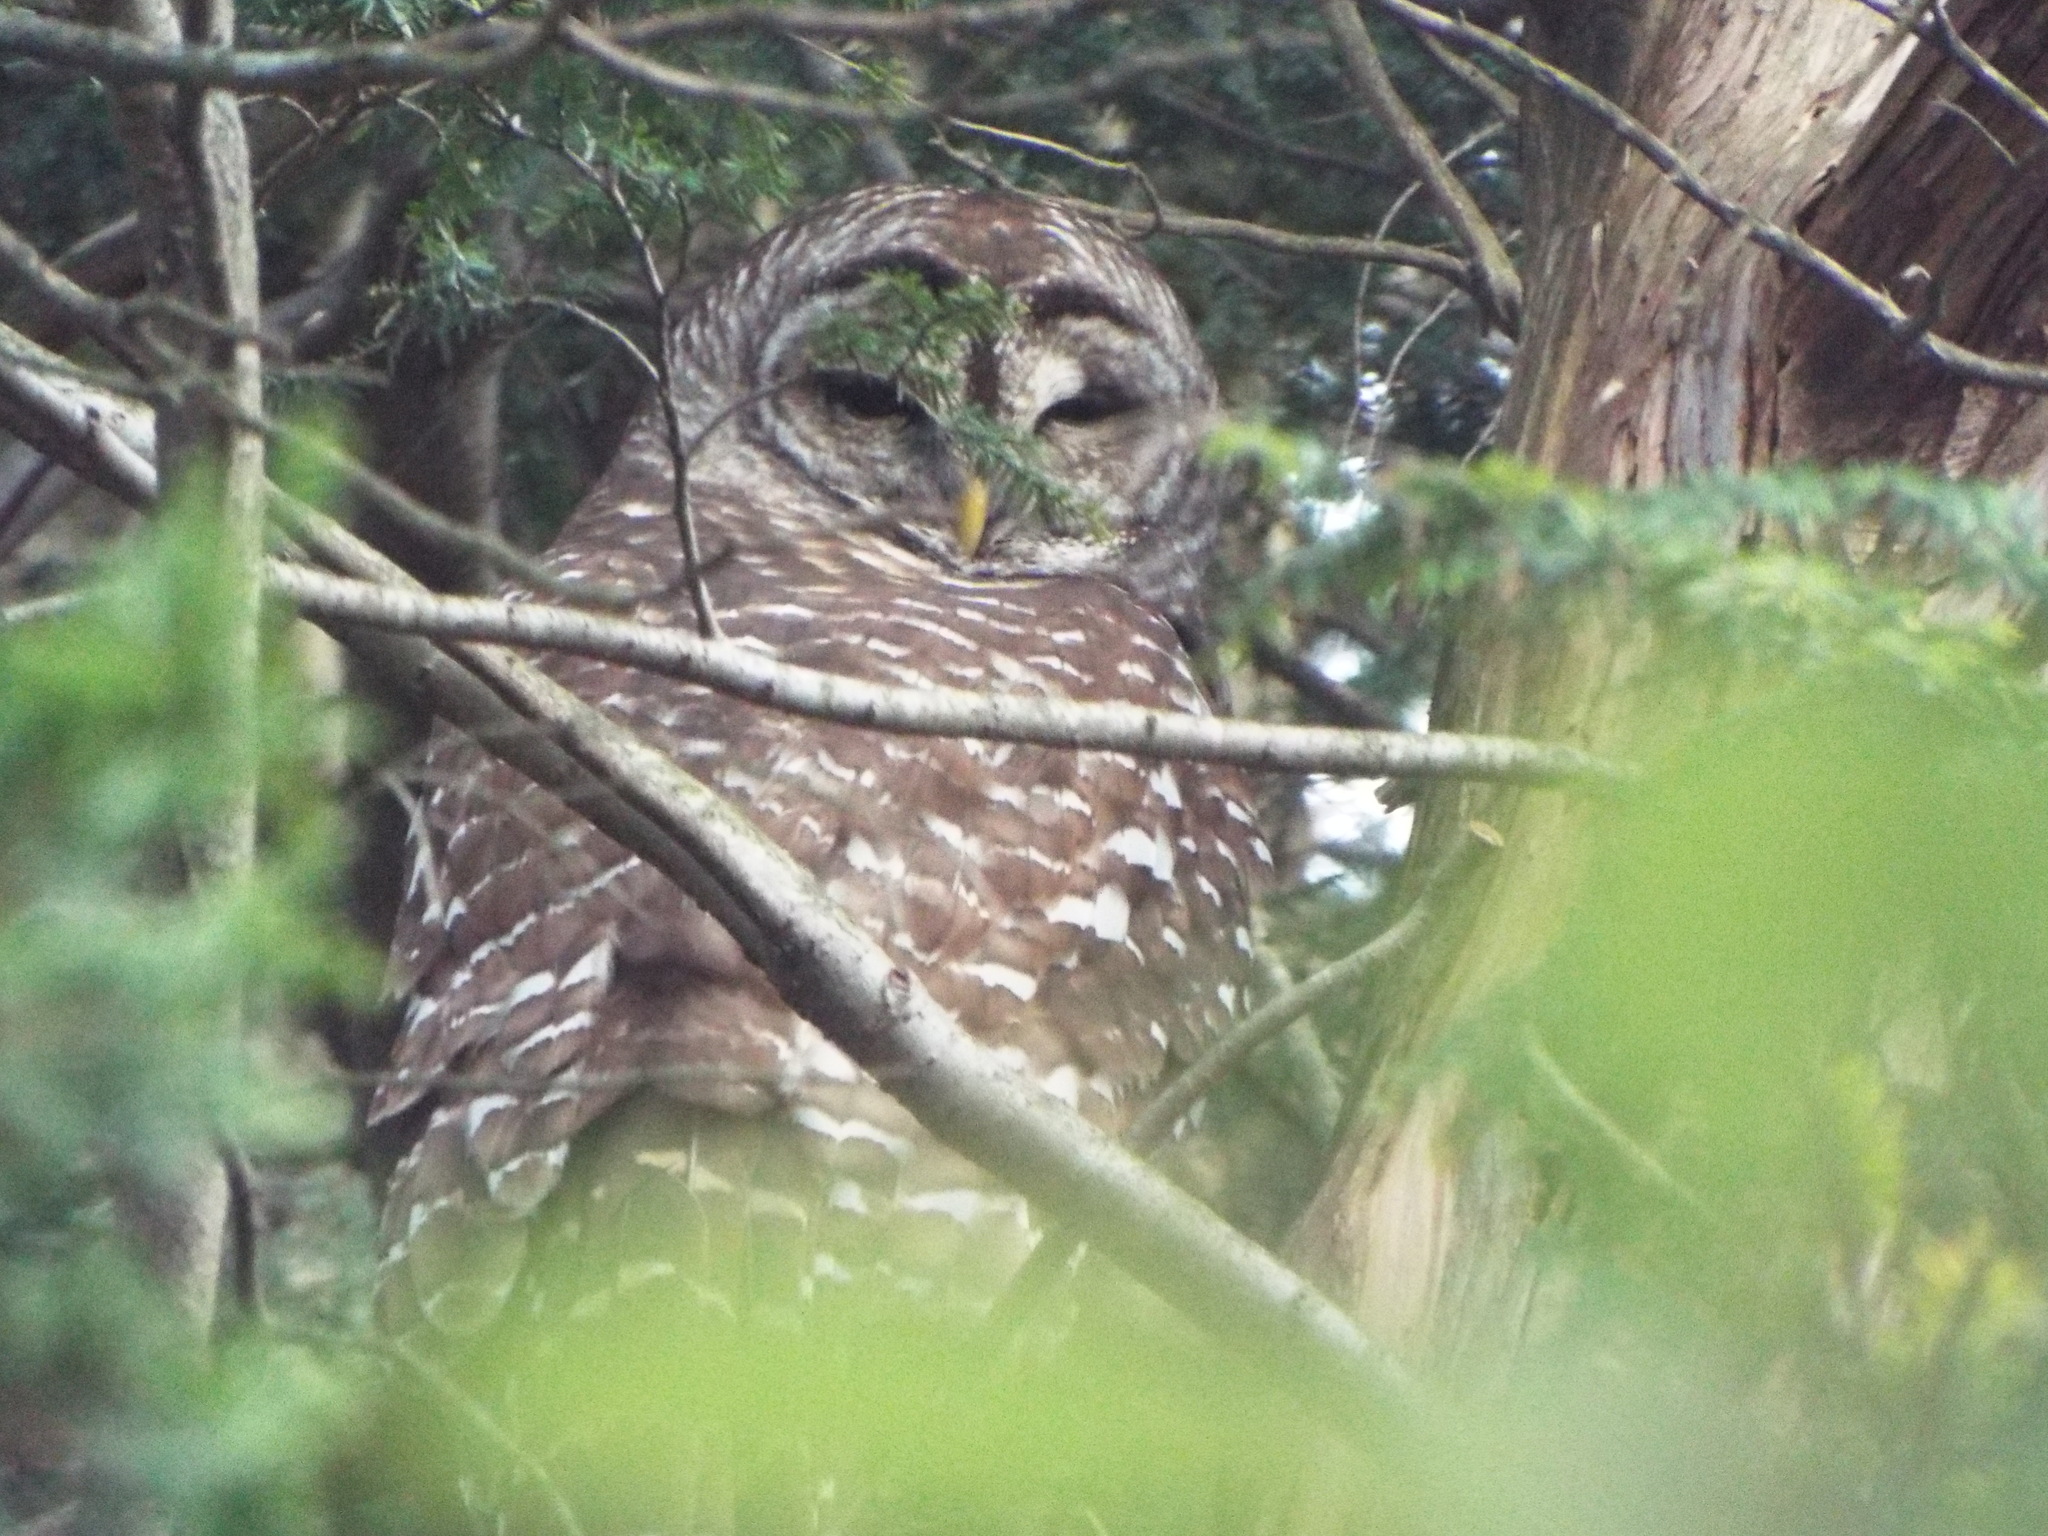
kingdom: Animalia
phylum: Chordata
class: Aves
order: Strigiformes
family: Strigidae
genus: Strix
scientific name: Strix varia
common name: Barred owl
